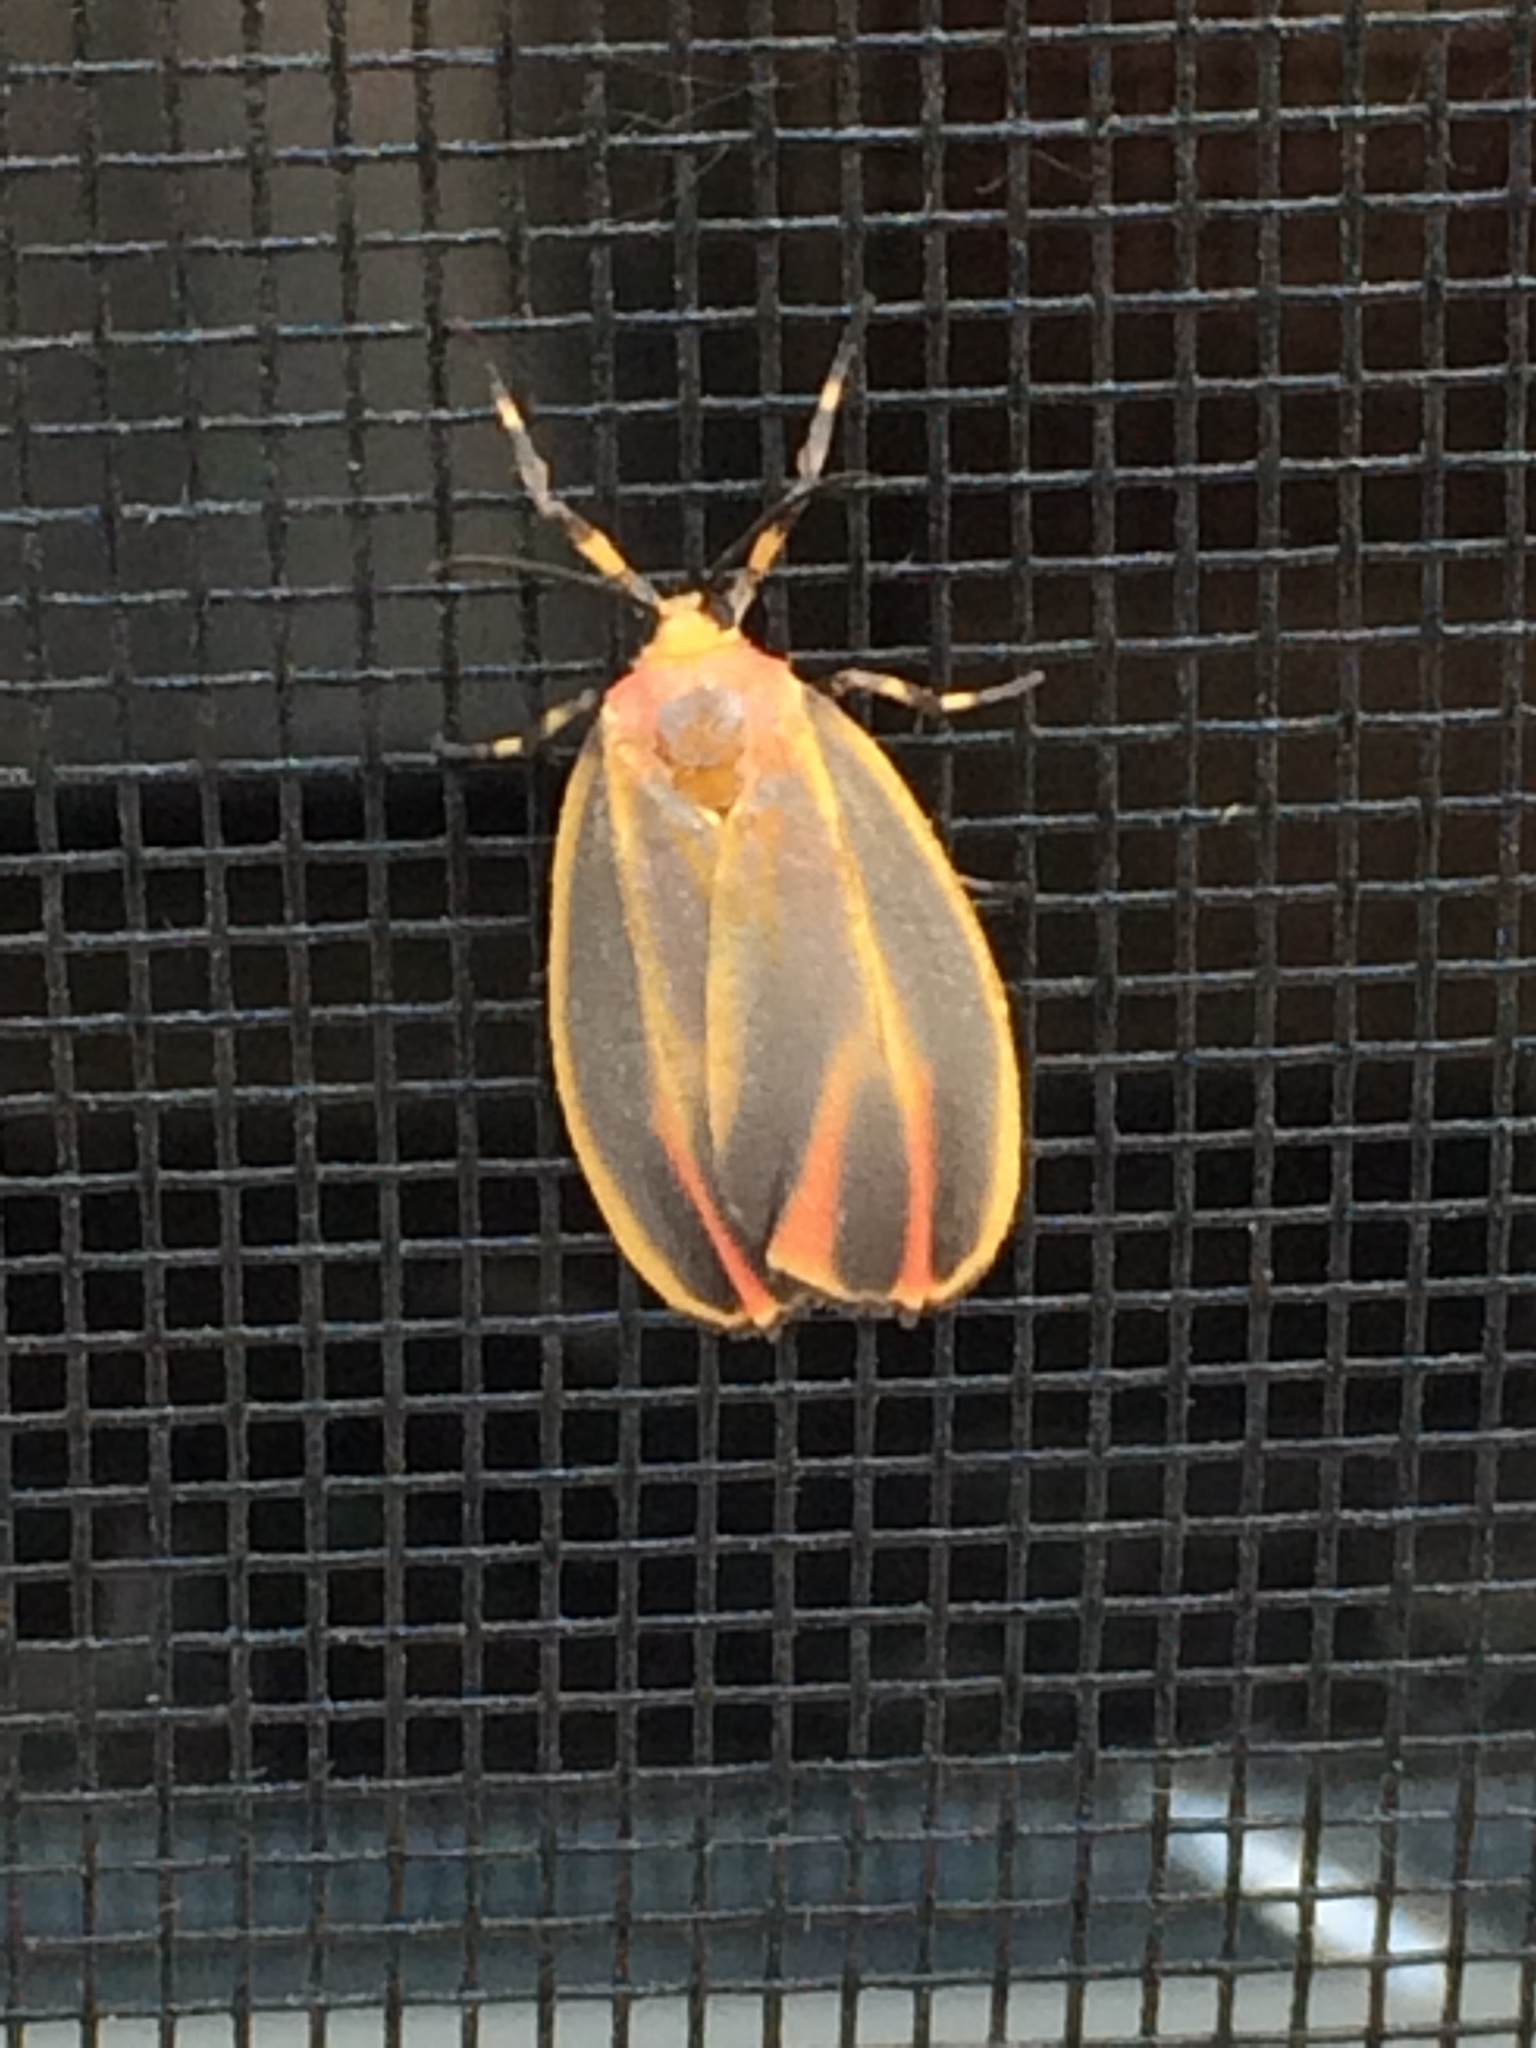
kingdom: Animalia
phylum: Arthropoda
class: Insecta
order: Lepidoptera
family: Erebidae
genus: Hypoprepia
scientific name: Hypoprepia fucosa
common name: Painted lichen moth
